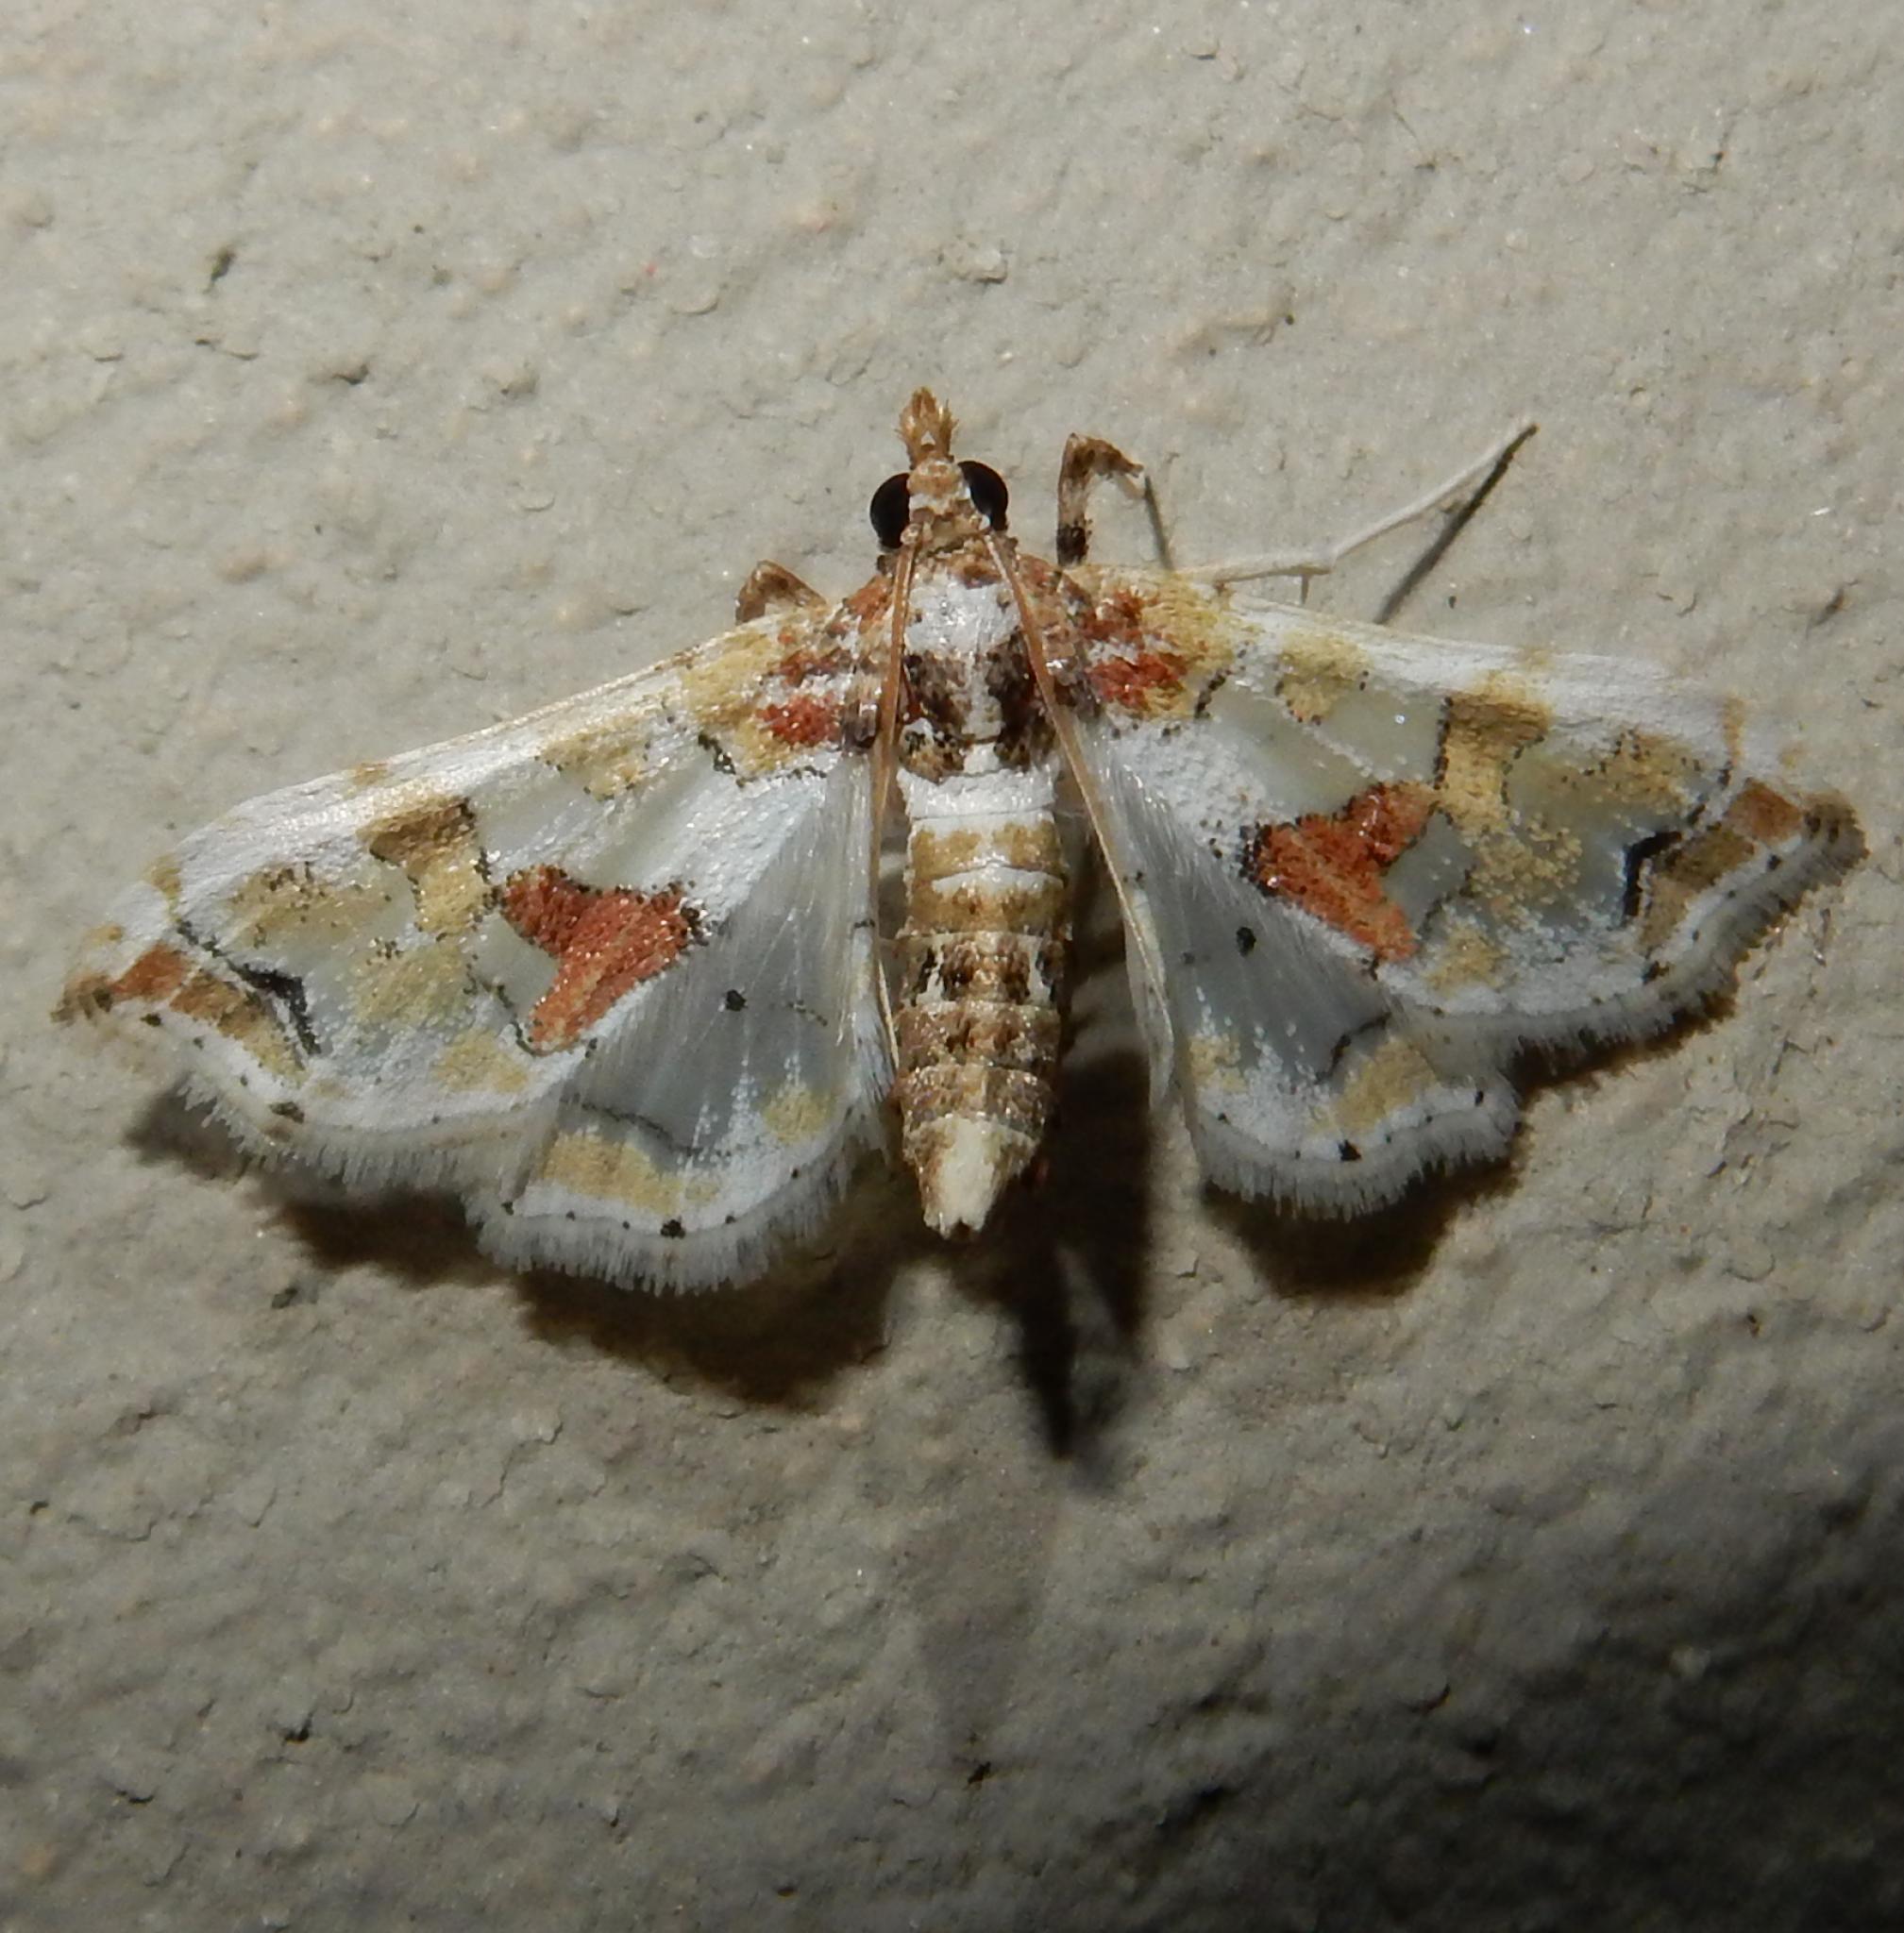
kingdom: Animalia
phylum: Arthropoda
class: Insecta
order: Lepidoptera
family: Crambidae
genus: Leucinodes
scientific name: Leucinodes pseudorbonalis
